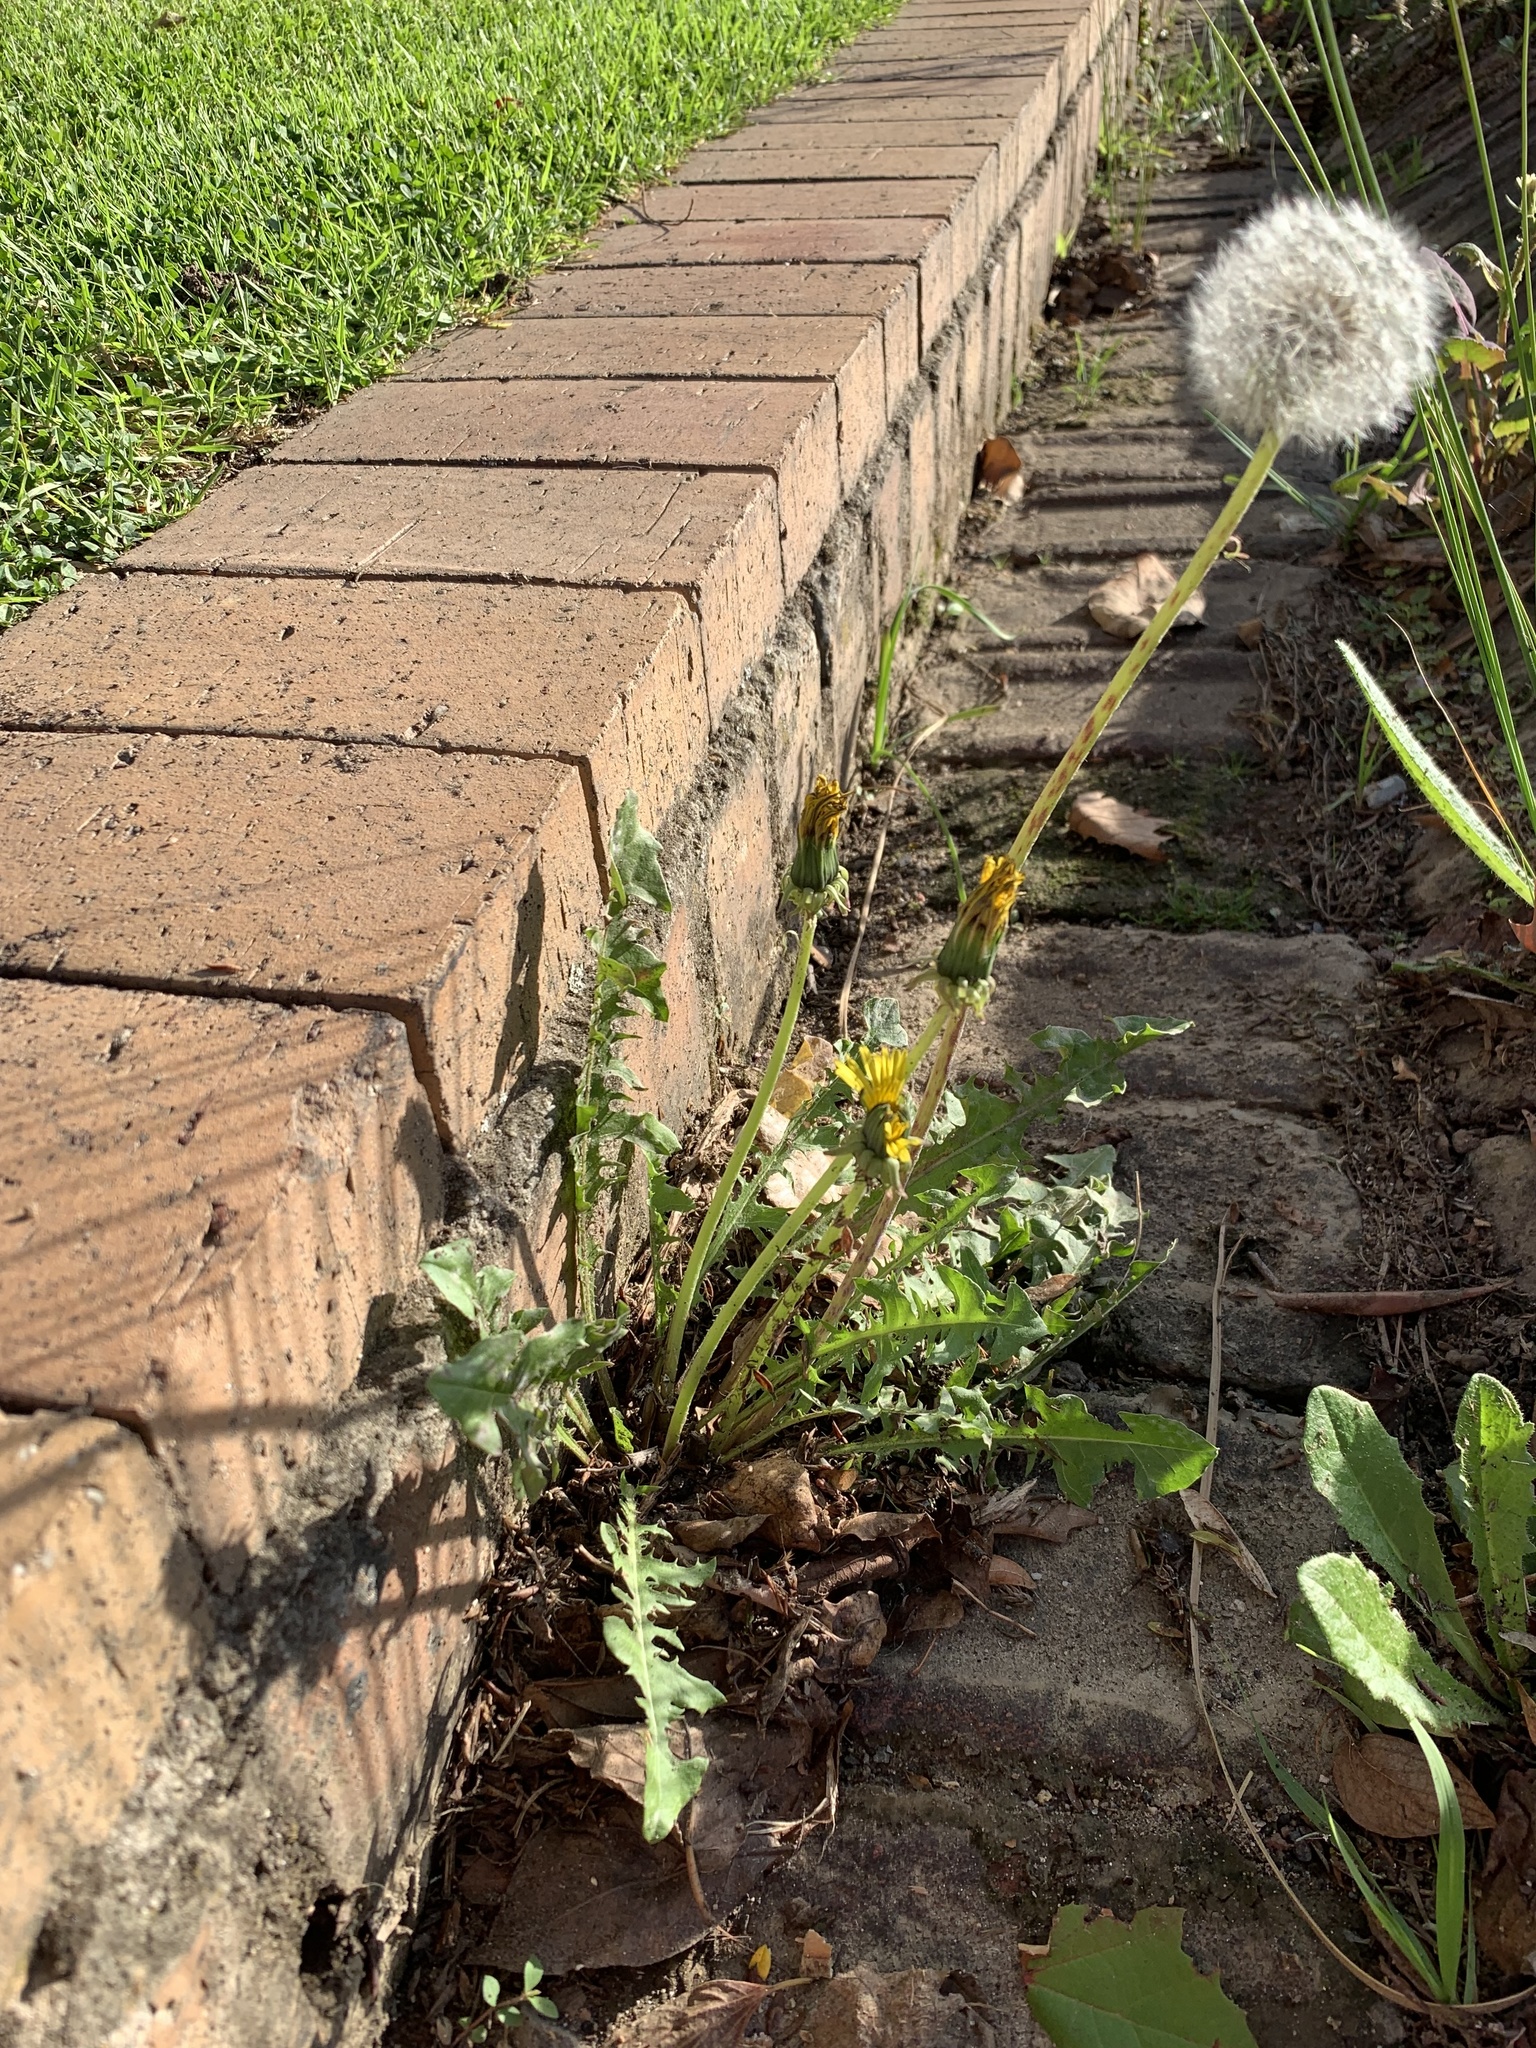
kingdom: Plantae
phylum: Tracheophyta
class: Magnoliopsida
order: Asterales
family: Asteraceae
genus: Taraxacum
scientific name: Taraxacum officinale
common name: Common dandelion
